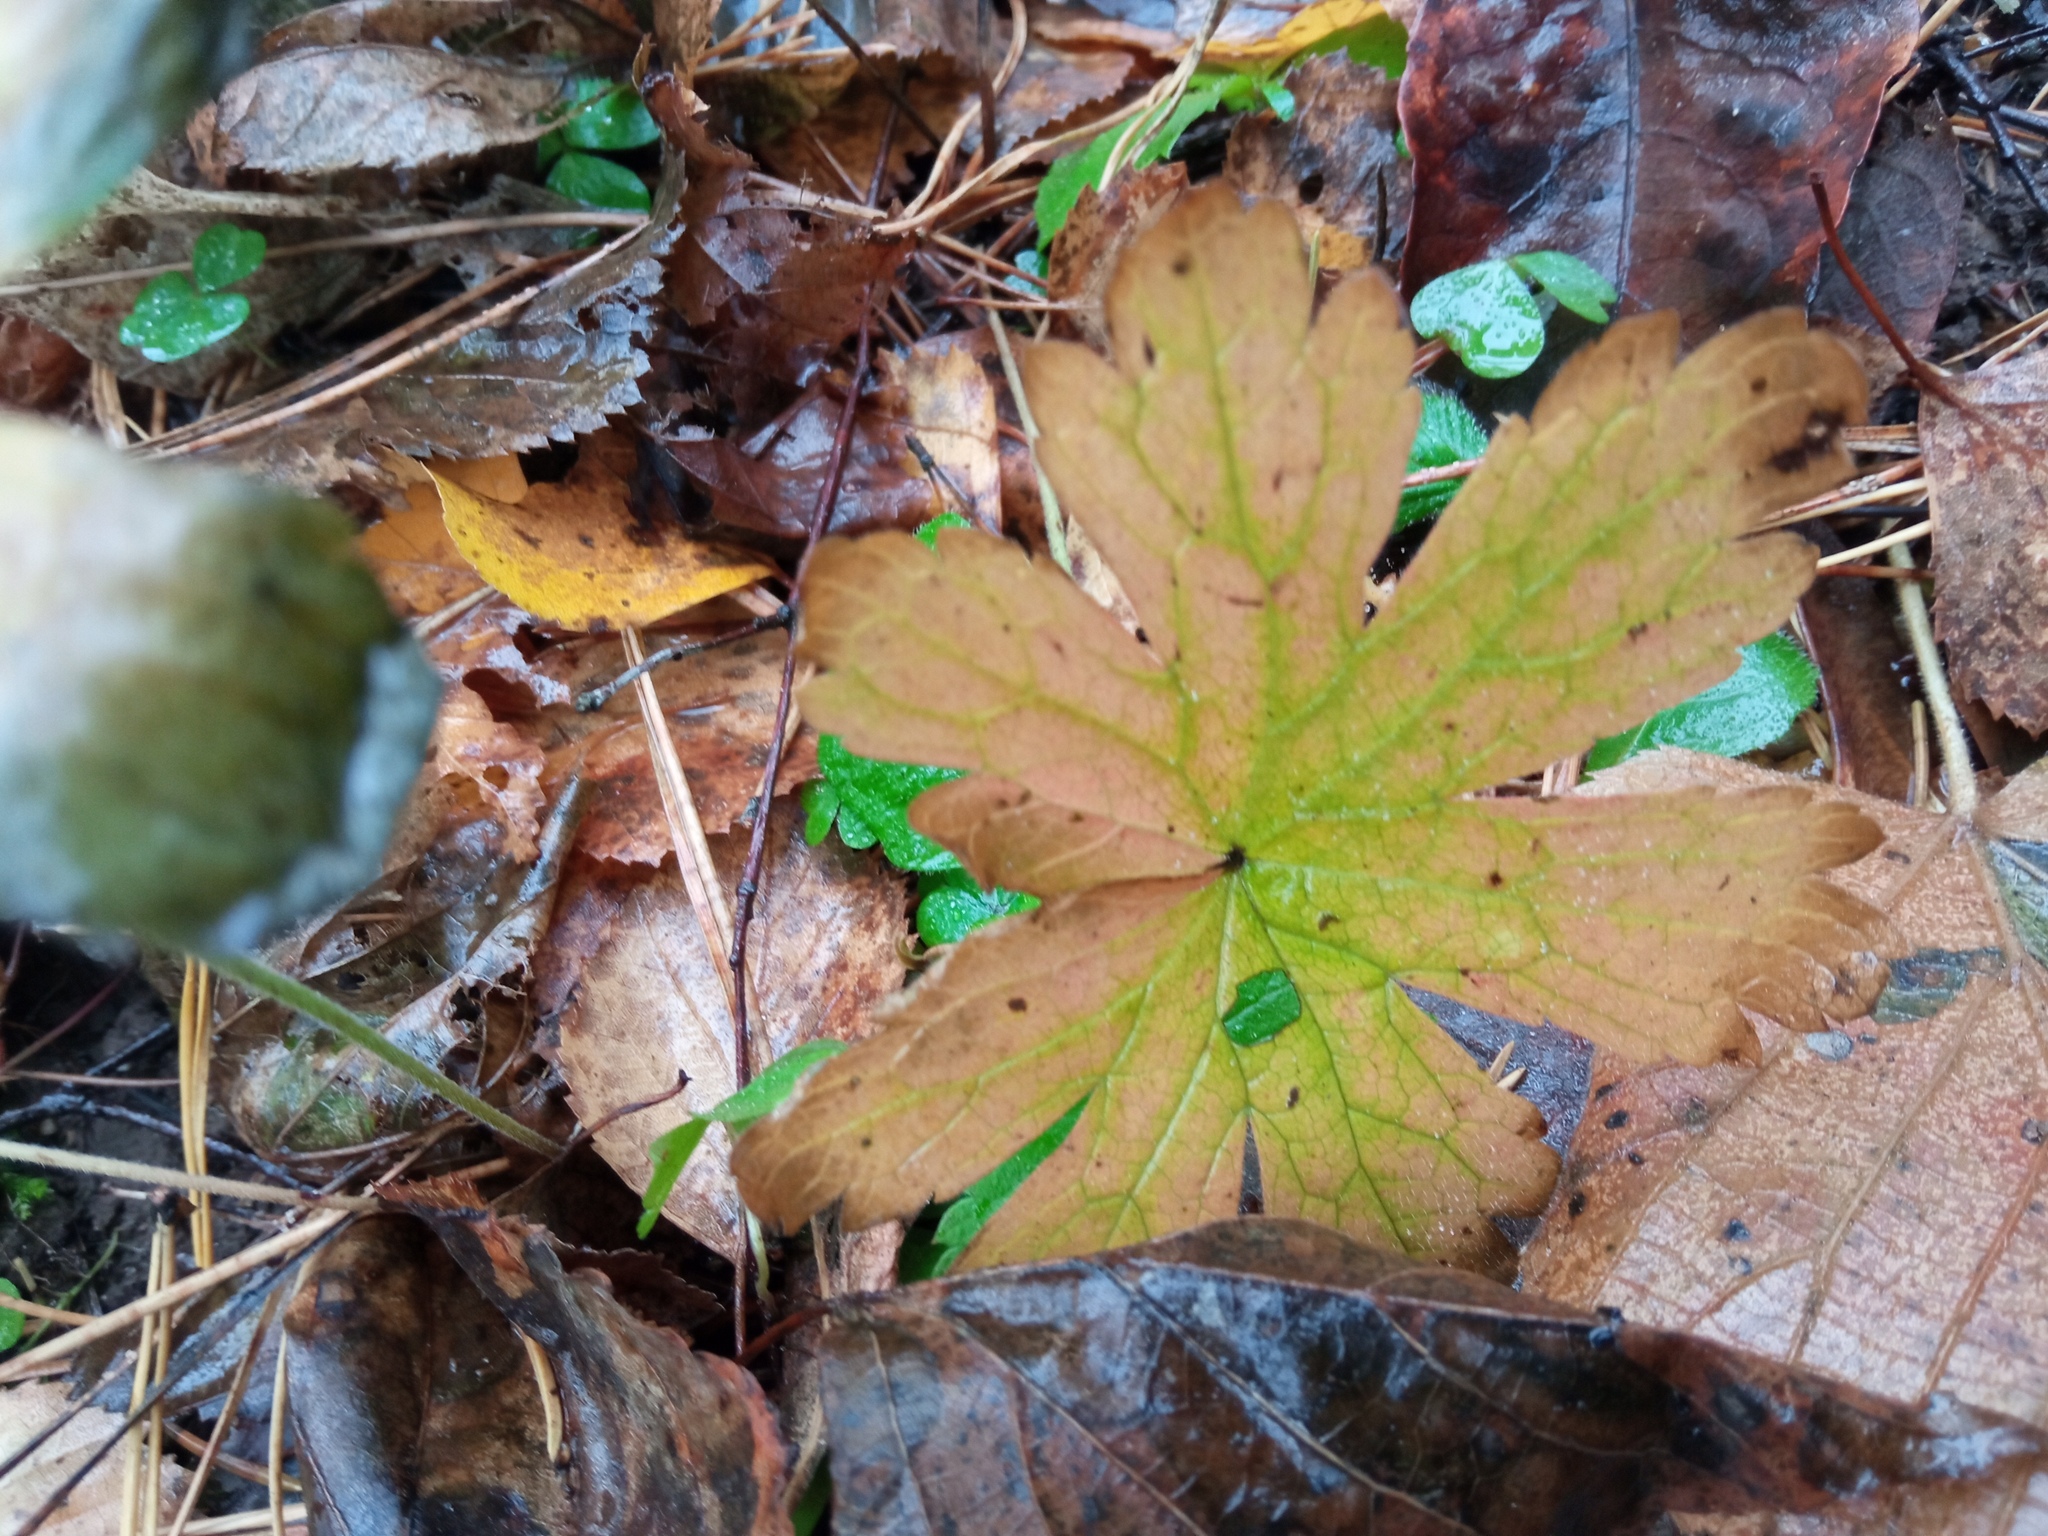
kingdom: Plantae
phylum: Tracheophyta
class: Magnoliopsida
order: Geraniales
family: Geraniaceae
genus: Geranium
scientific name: Geranium sylvaticum
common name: Wood crane's-bill
